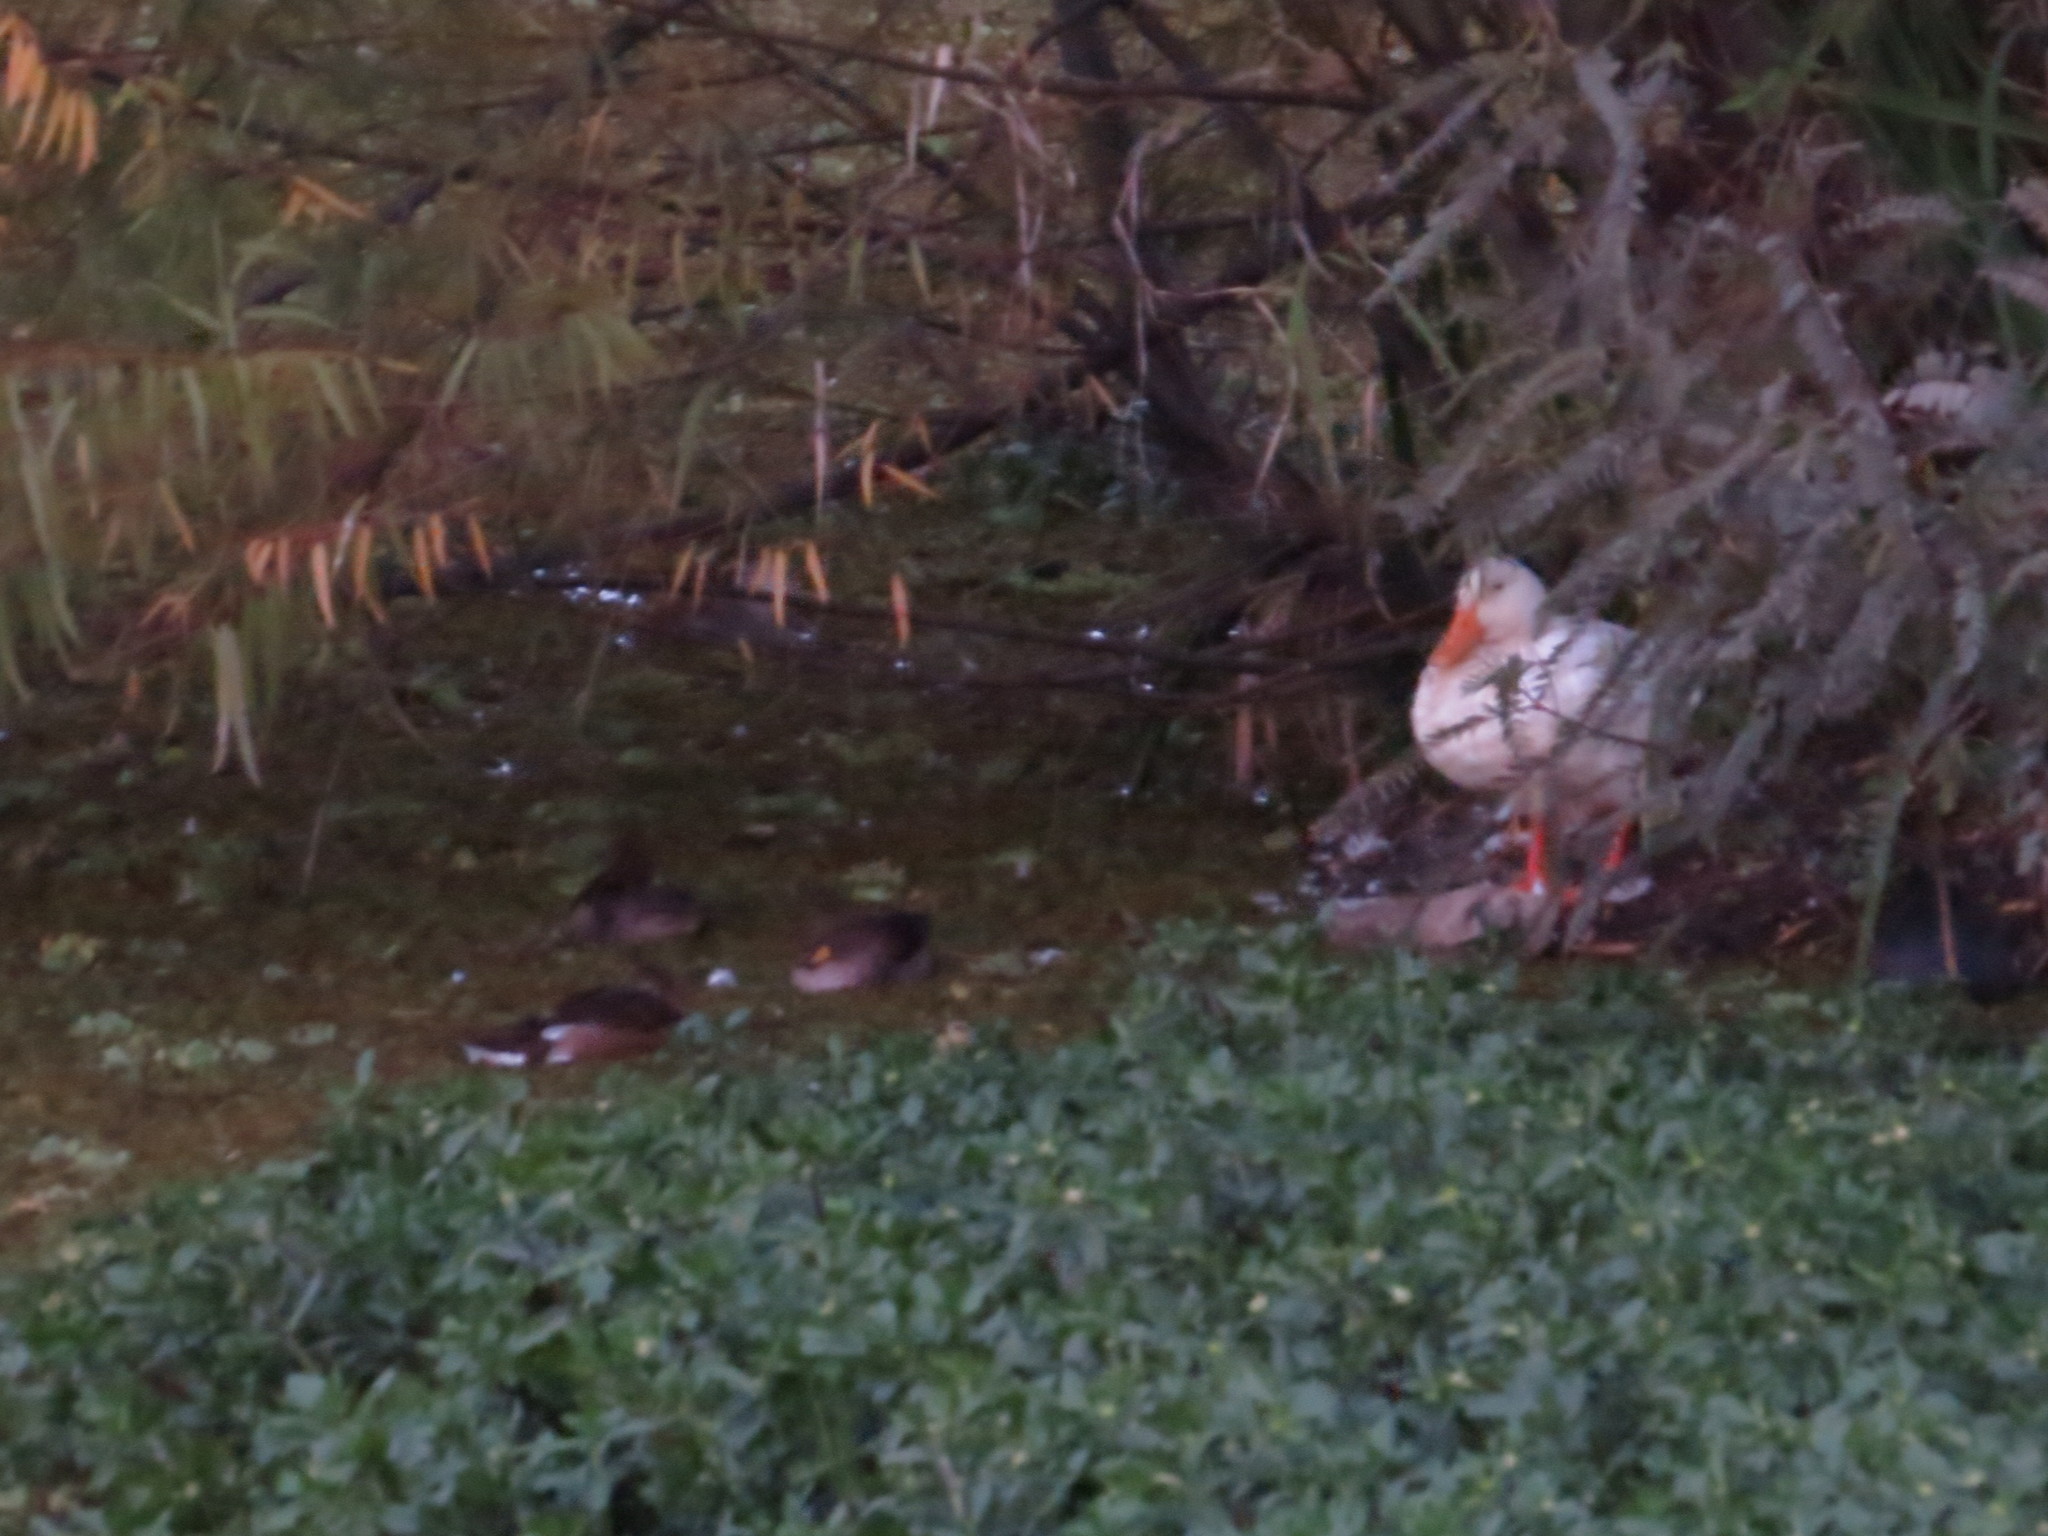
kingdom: Animalia
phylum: Chordata
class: Aves
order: Anseriformes
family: Anatidae
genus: Anas
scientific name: Anas platyrhynchos
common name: Mallard
